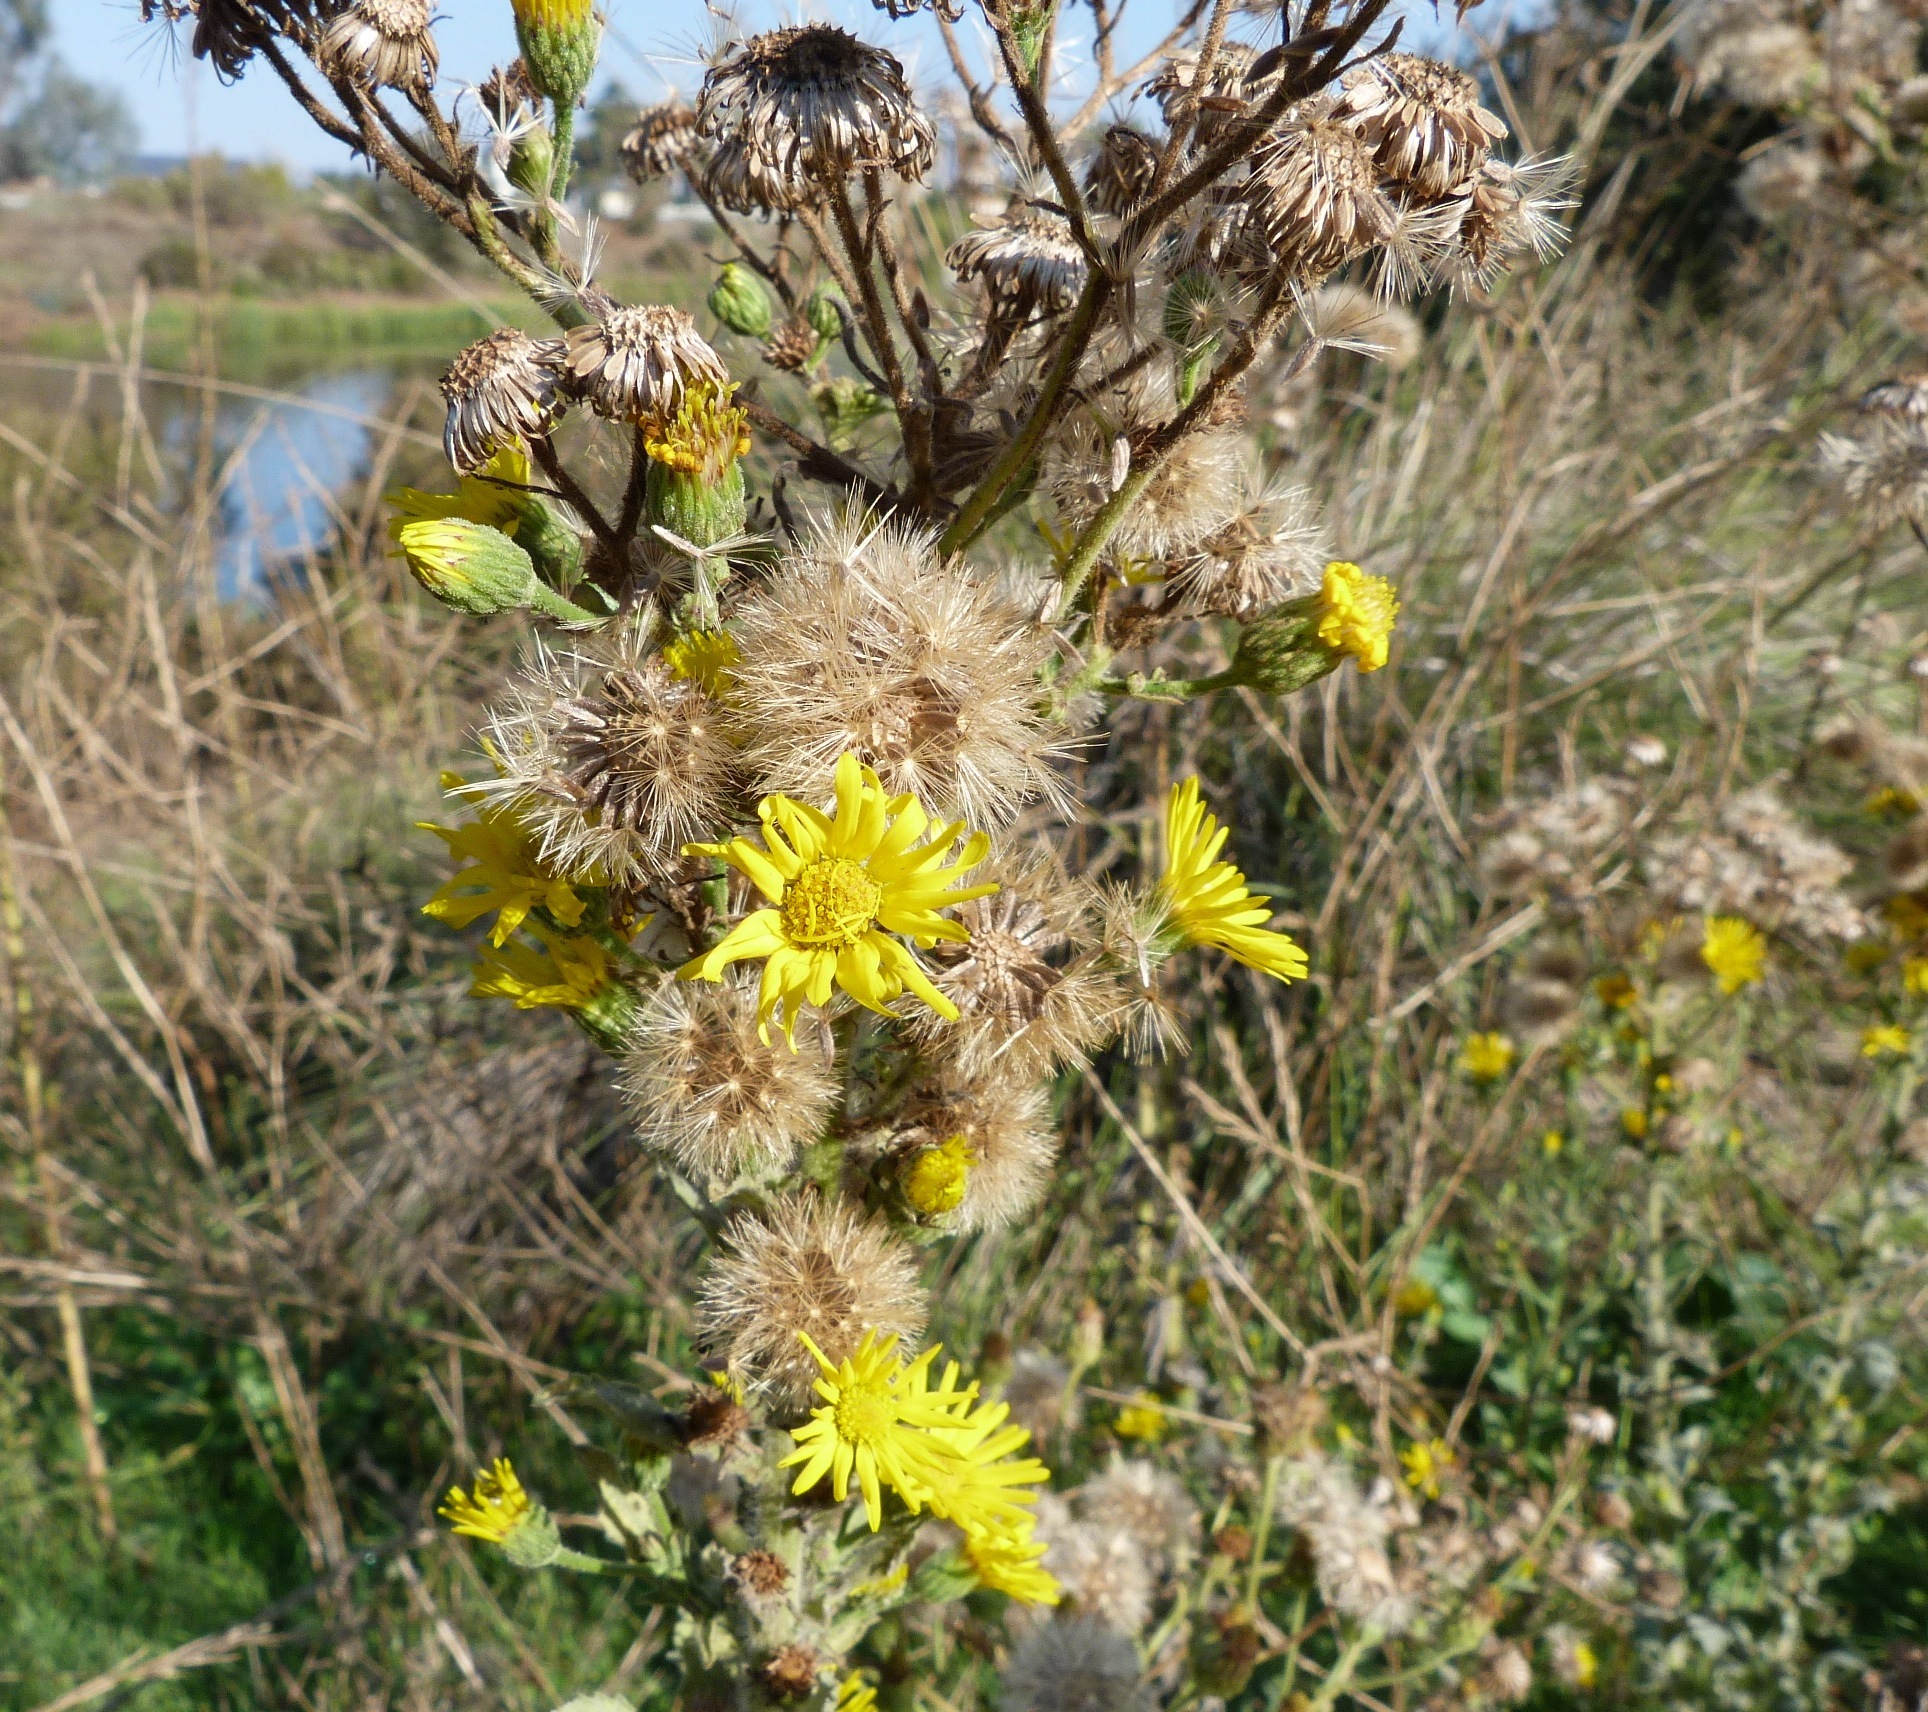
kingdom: Plantae
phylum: Tracheophyta
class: Magnoliopsida
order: Asterales
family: Asteraceae
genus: Heterotheca
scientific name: Heterotheca grandiflora
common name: Telegraphweed
